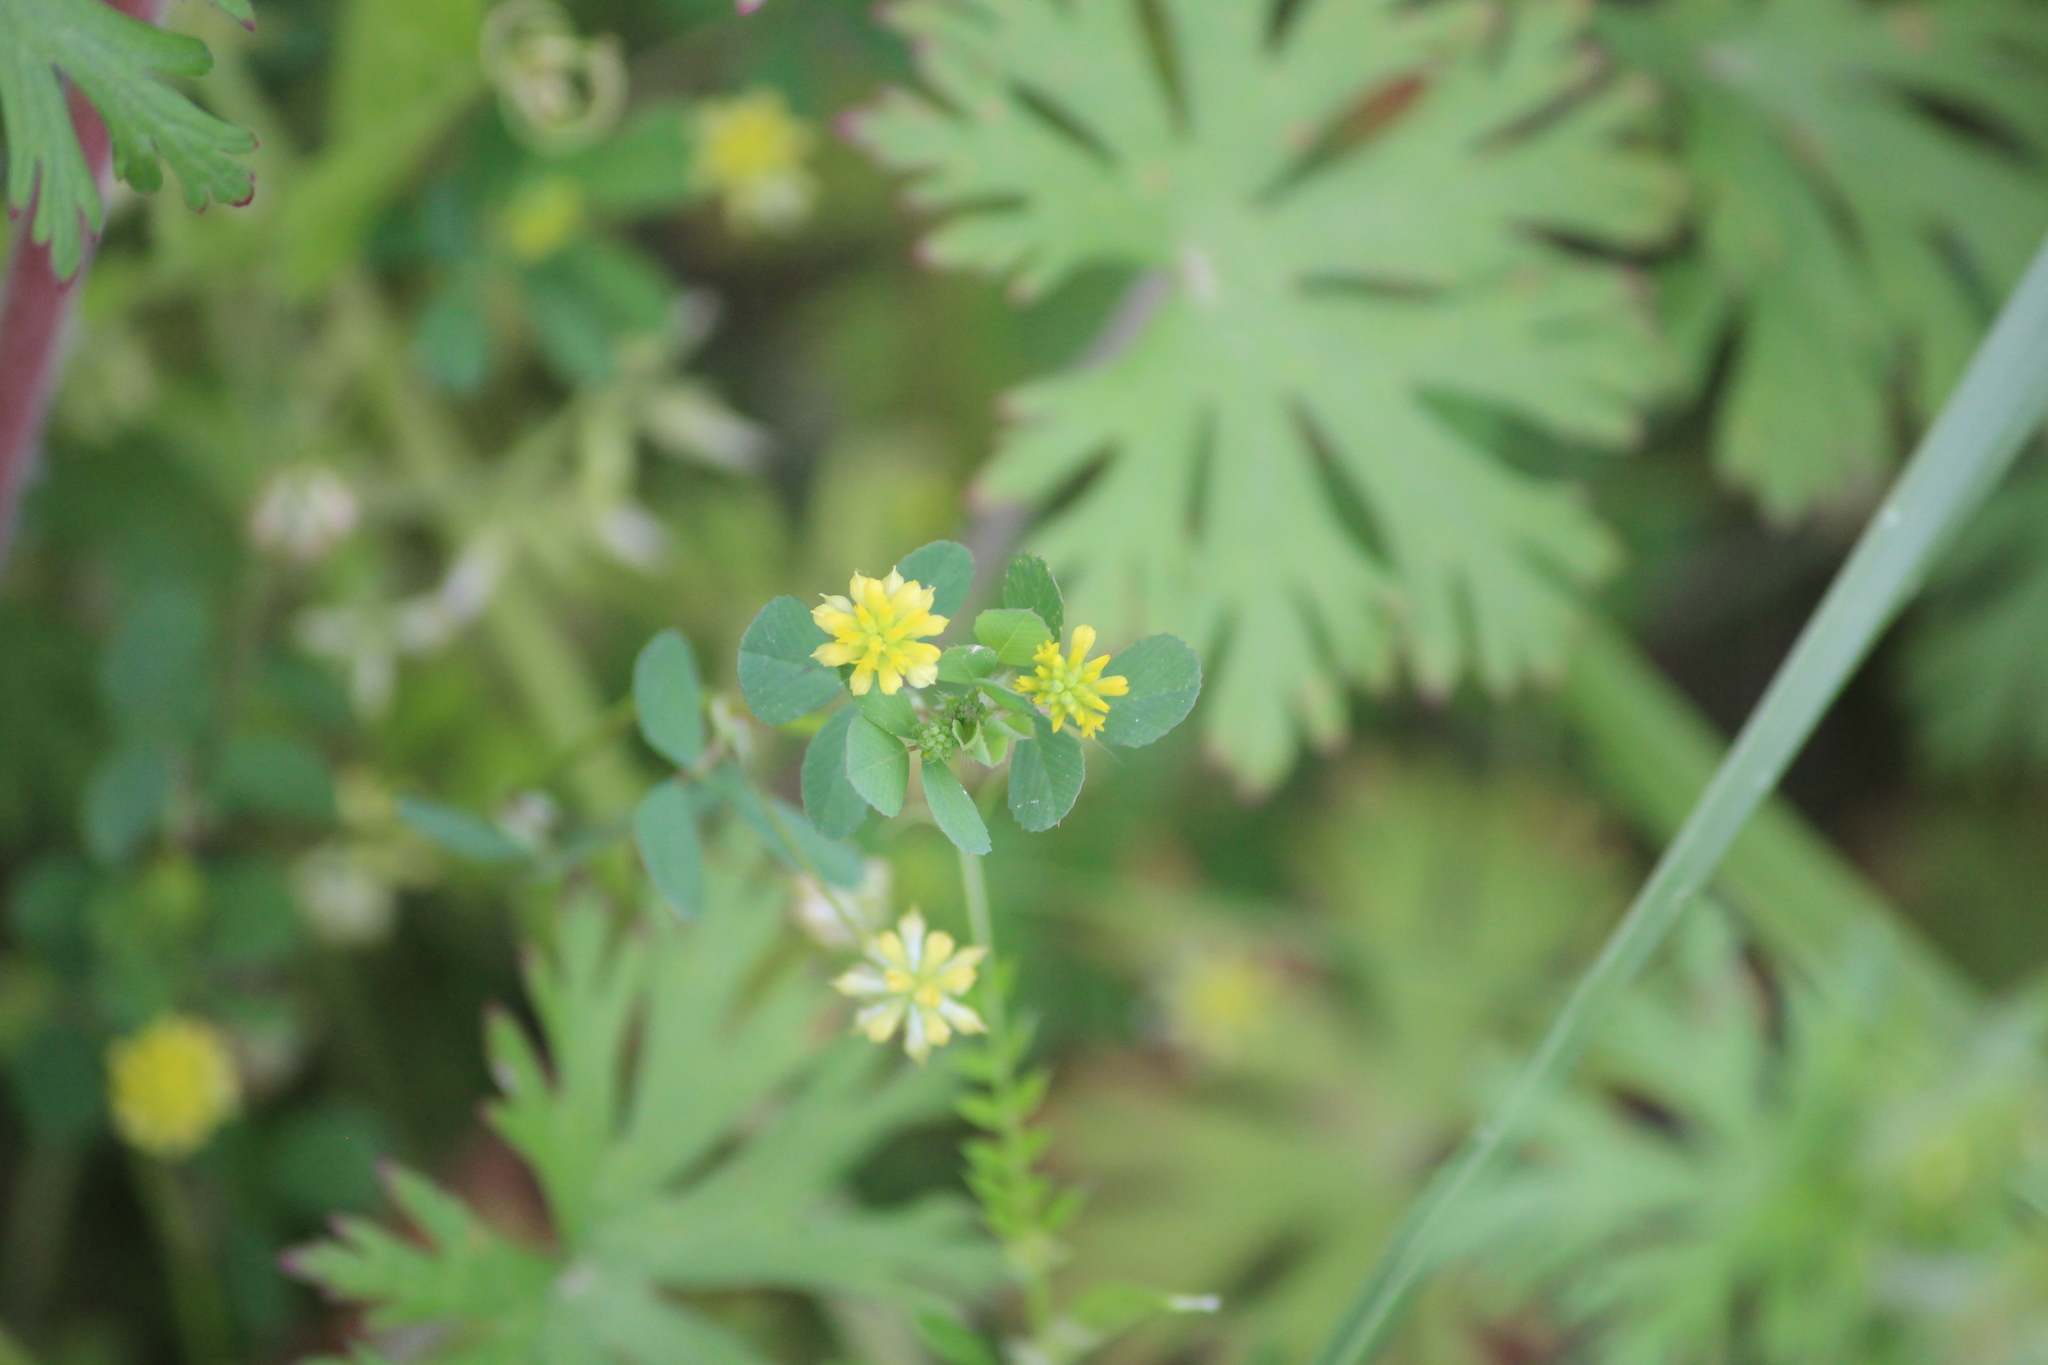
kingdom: Plantae
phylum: Tracheophyta
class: Magnoliopsida
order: Fabales
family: Fabaceae
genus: Trifolium
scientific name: Trifolium dubium
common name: Suckling clover
